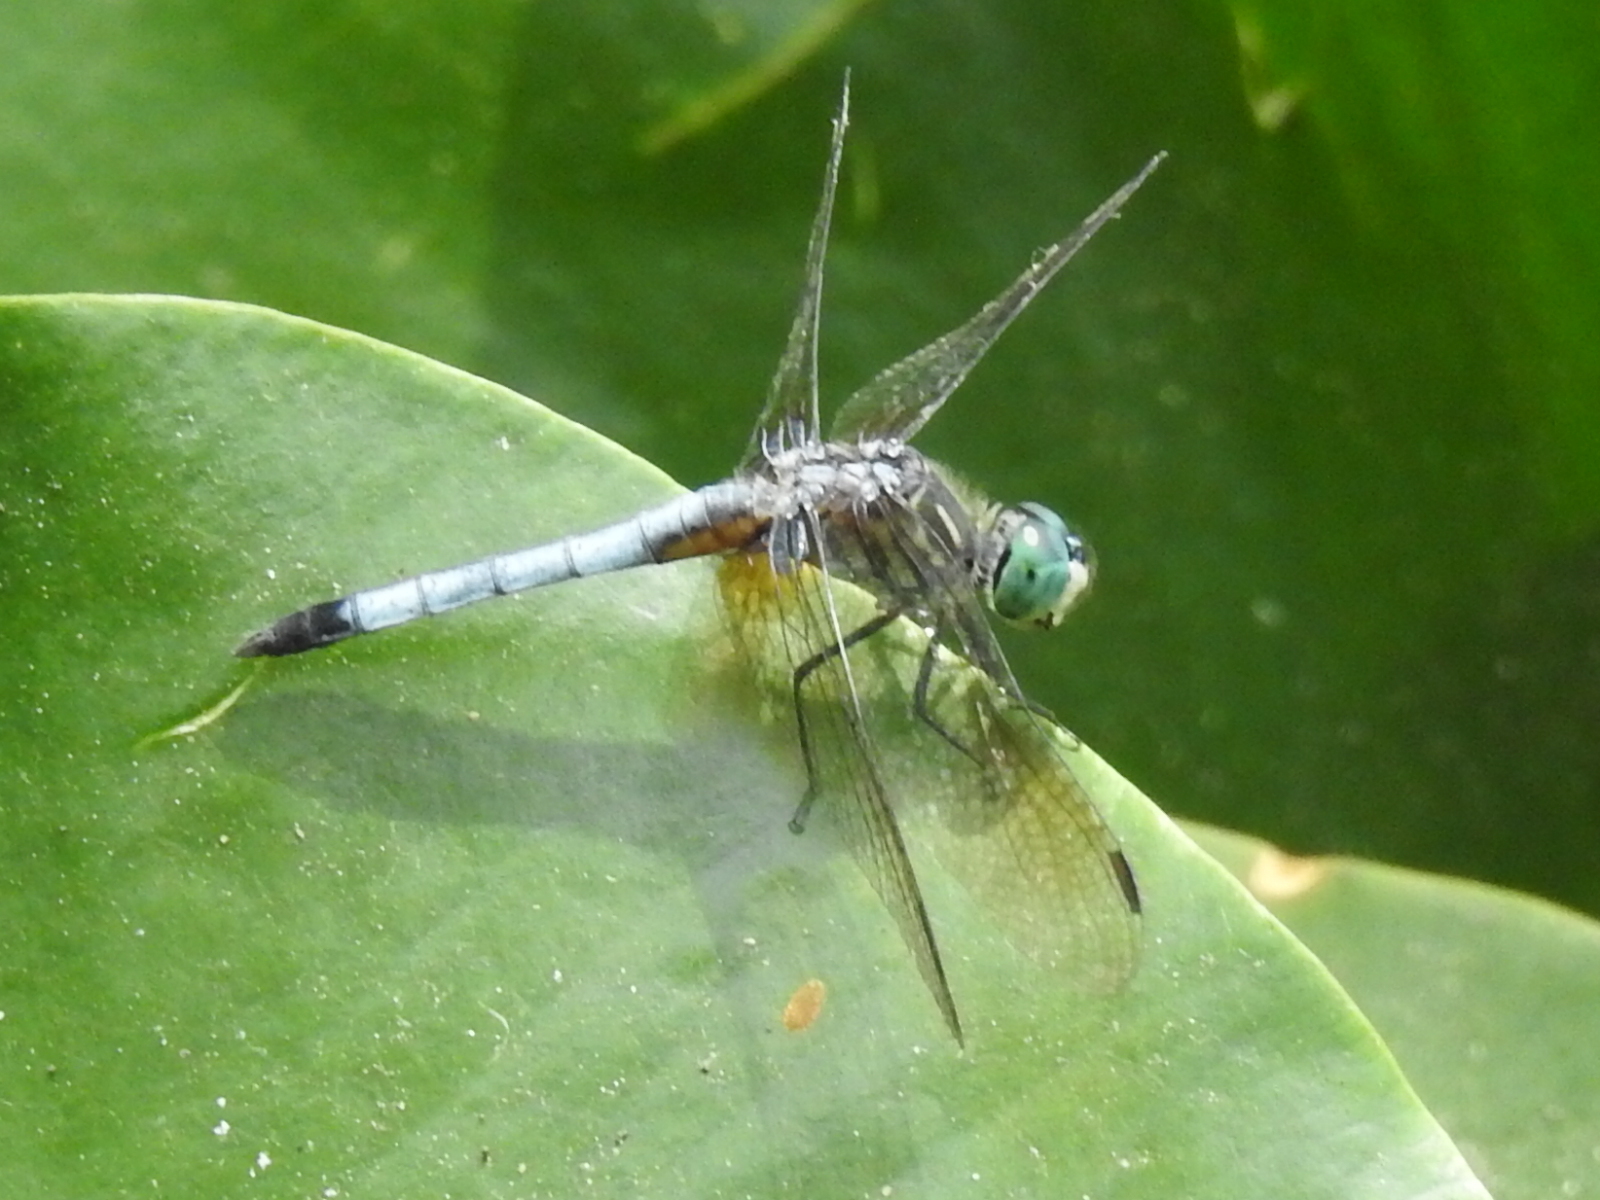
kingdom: Animalia
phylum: Arthropoda
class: Insecta
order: Odonata
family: Libellulidae
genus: Pachydiplax
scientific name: Pachydiplax longipennis
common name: Blue dasher
